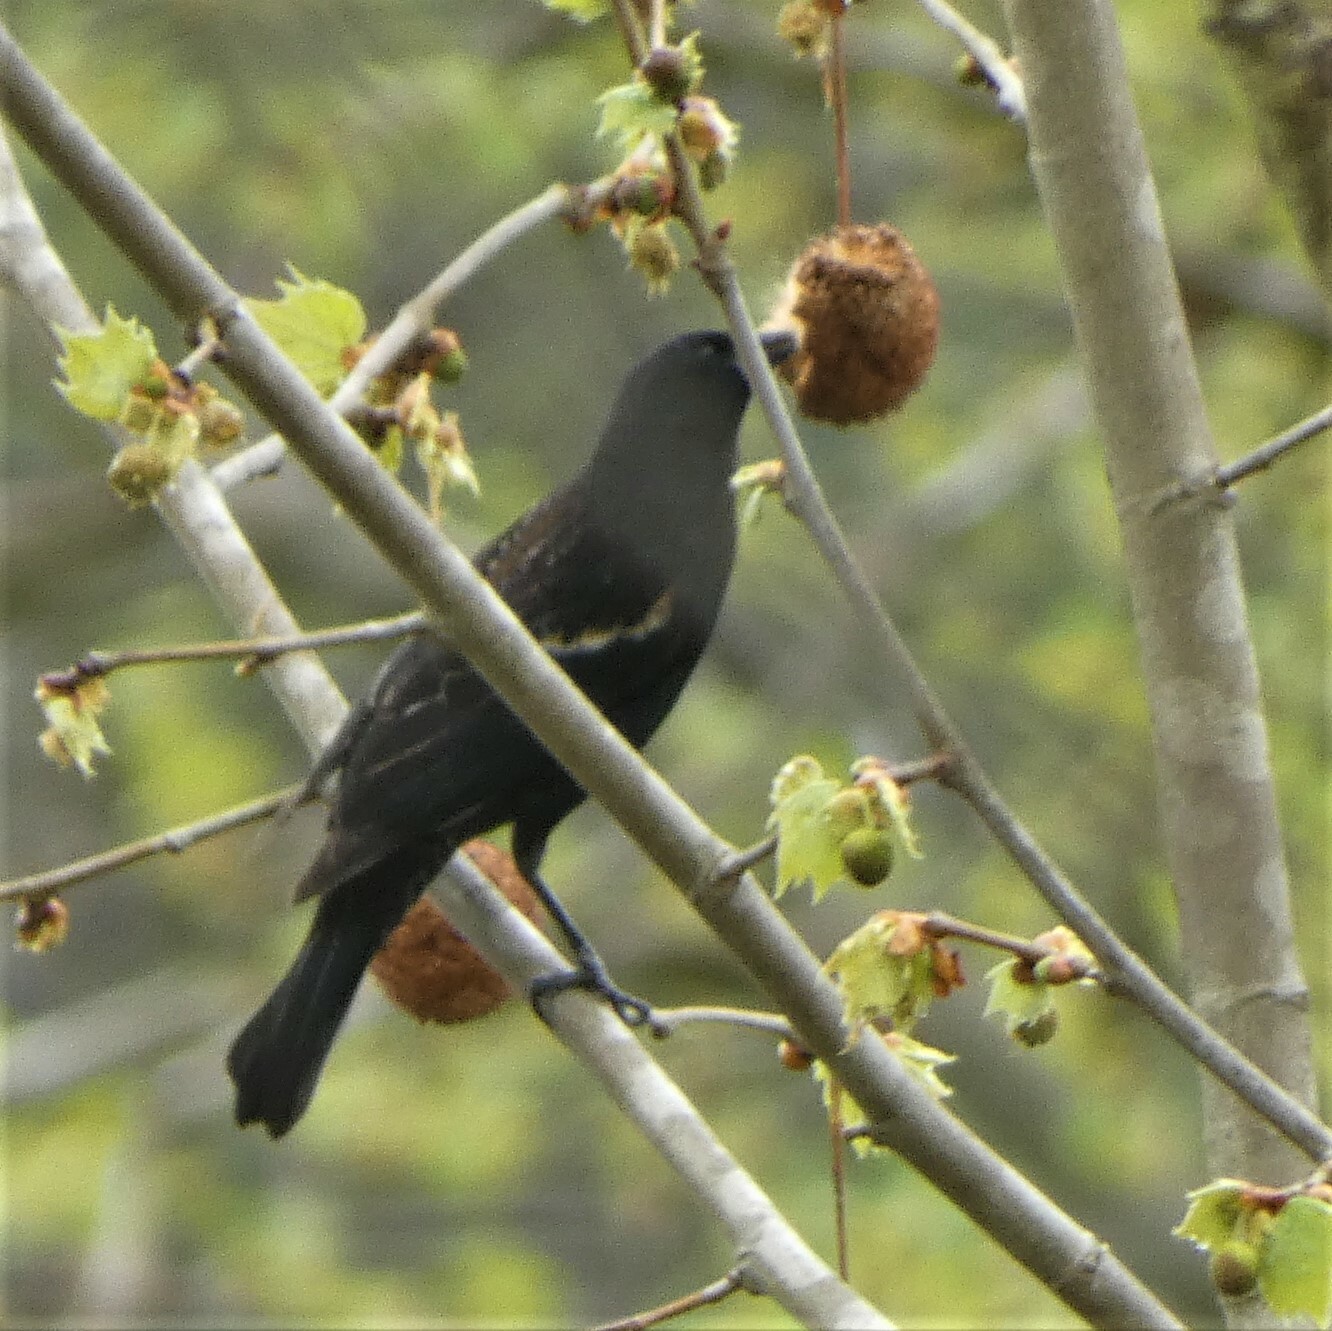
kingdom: Animalia
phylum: Chordata
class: Aves
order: Passeriformes
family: Icteridae
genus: Agelaius
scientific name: Agelaius phoeniceus
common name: Red-winged blackbird
